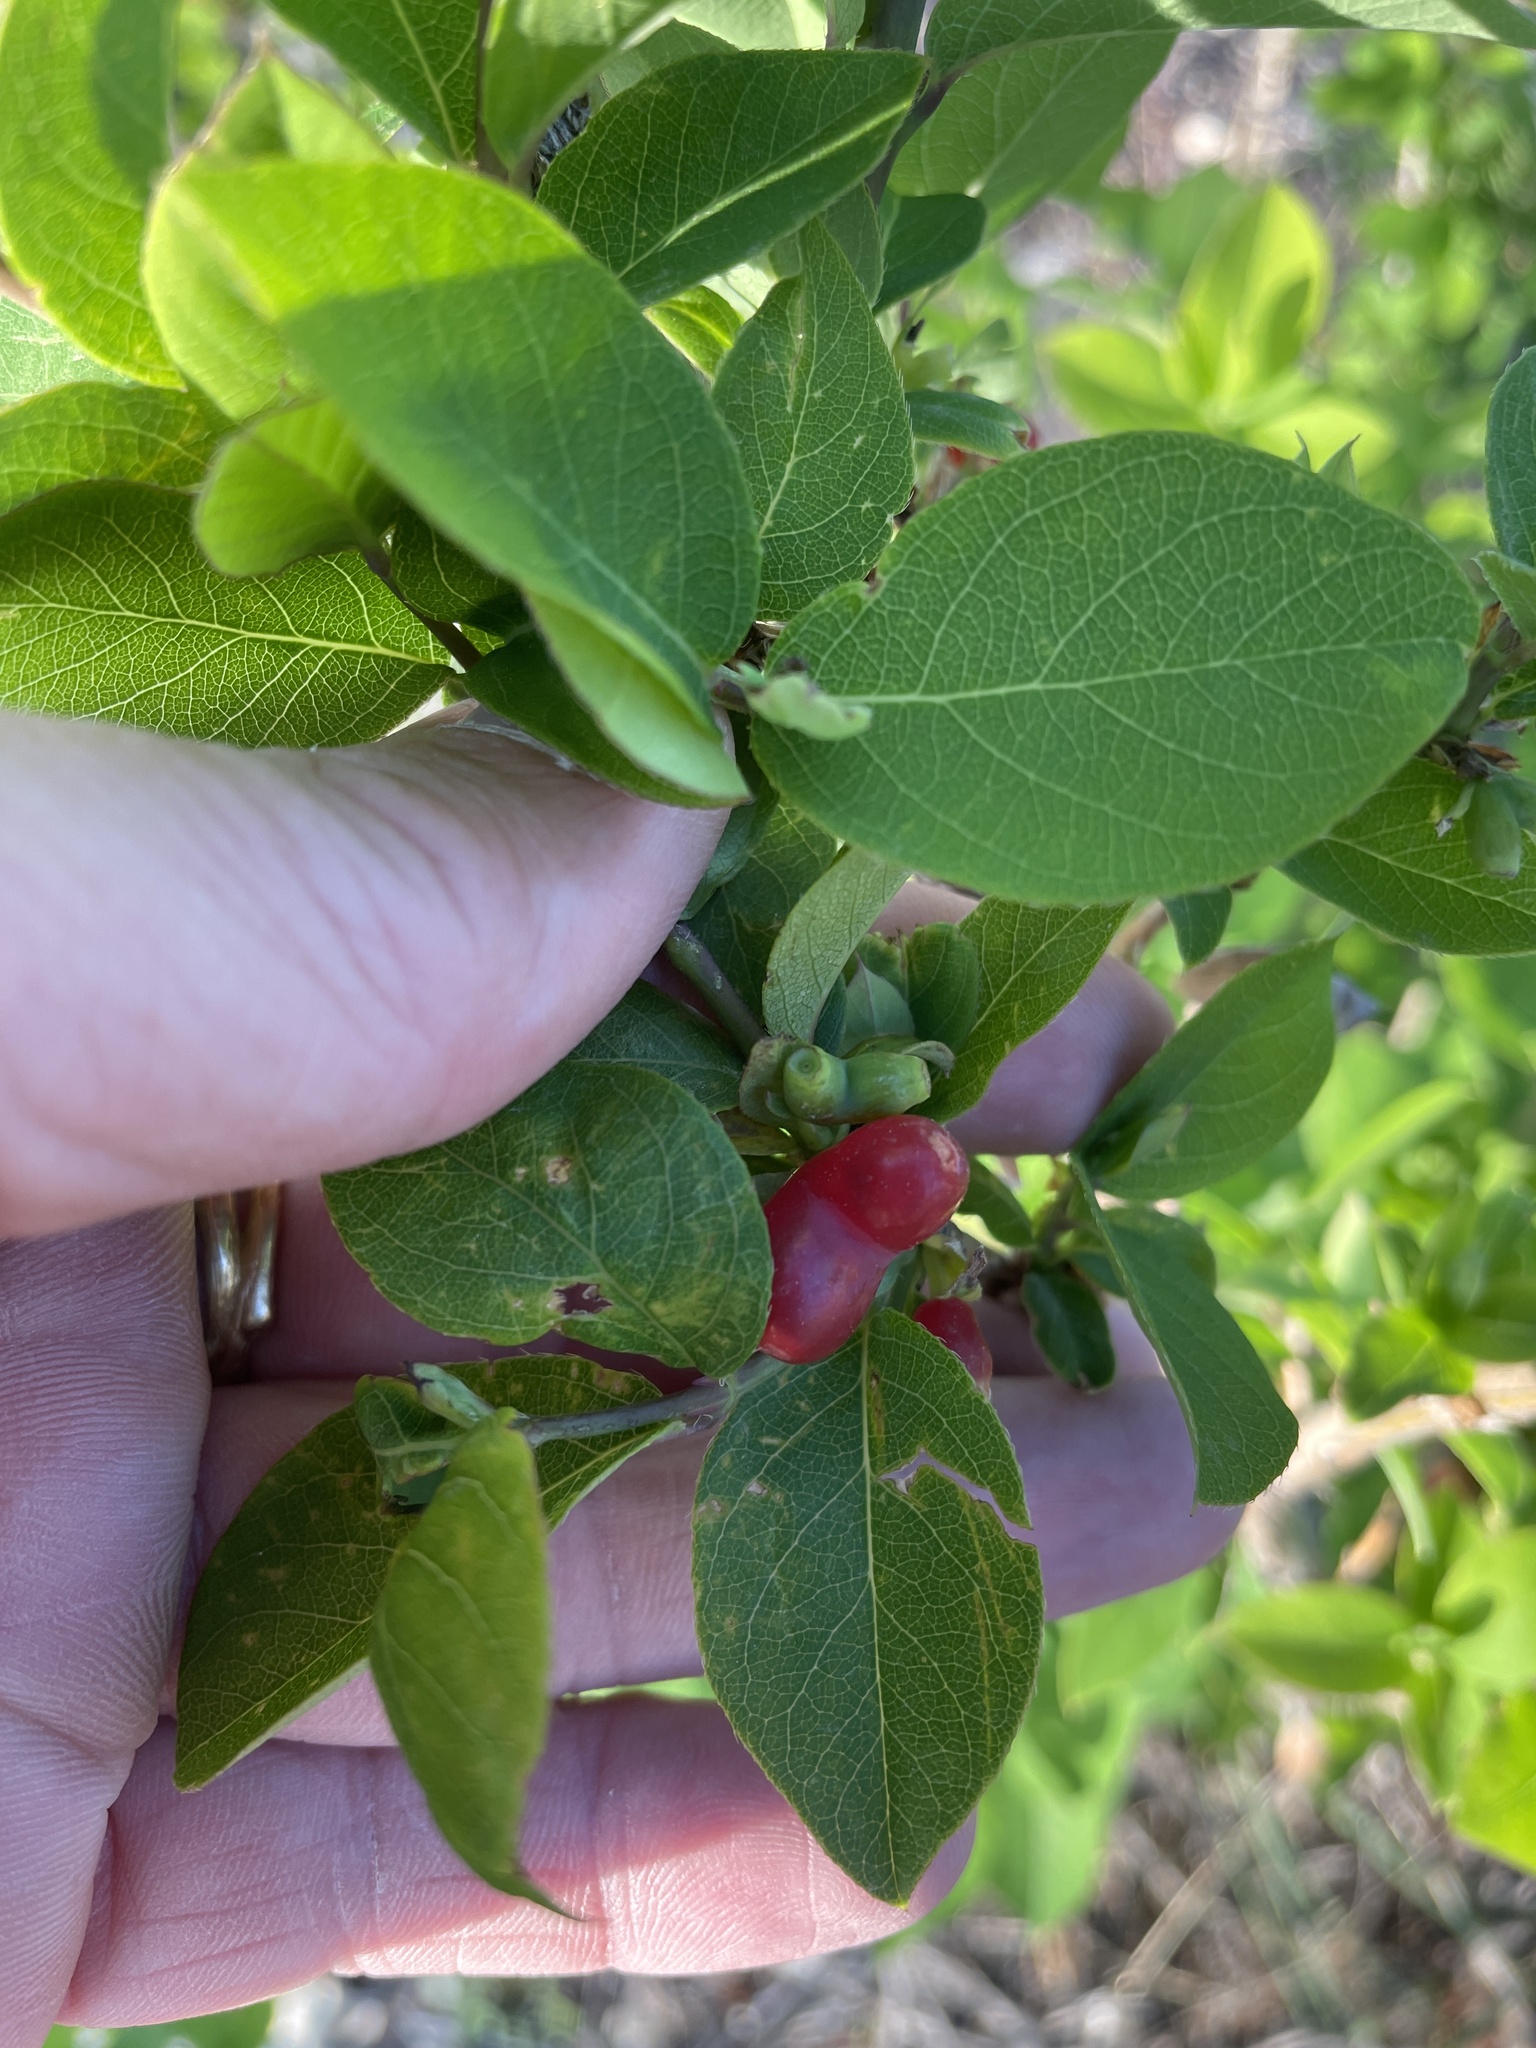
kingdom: Plantae
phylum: Tracheophyta
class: Magnoliopsida
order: Dipsacales
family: Caprifoliaceae
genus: Lonicera
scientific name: Lonicera fragrantissima
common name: Fragrant honeysuckle
